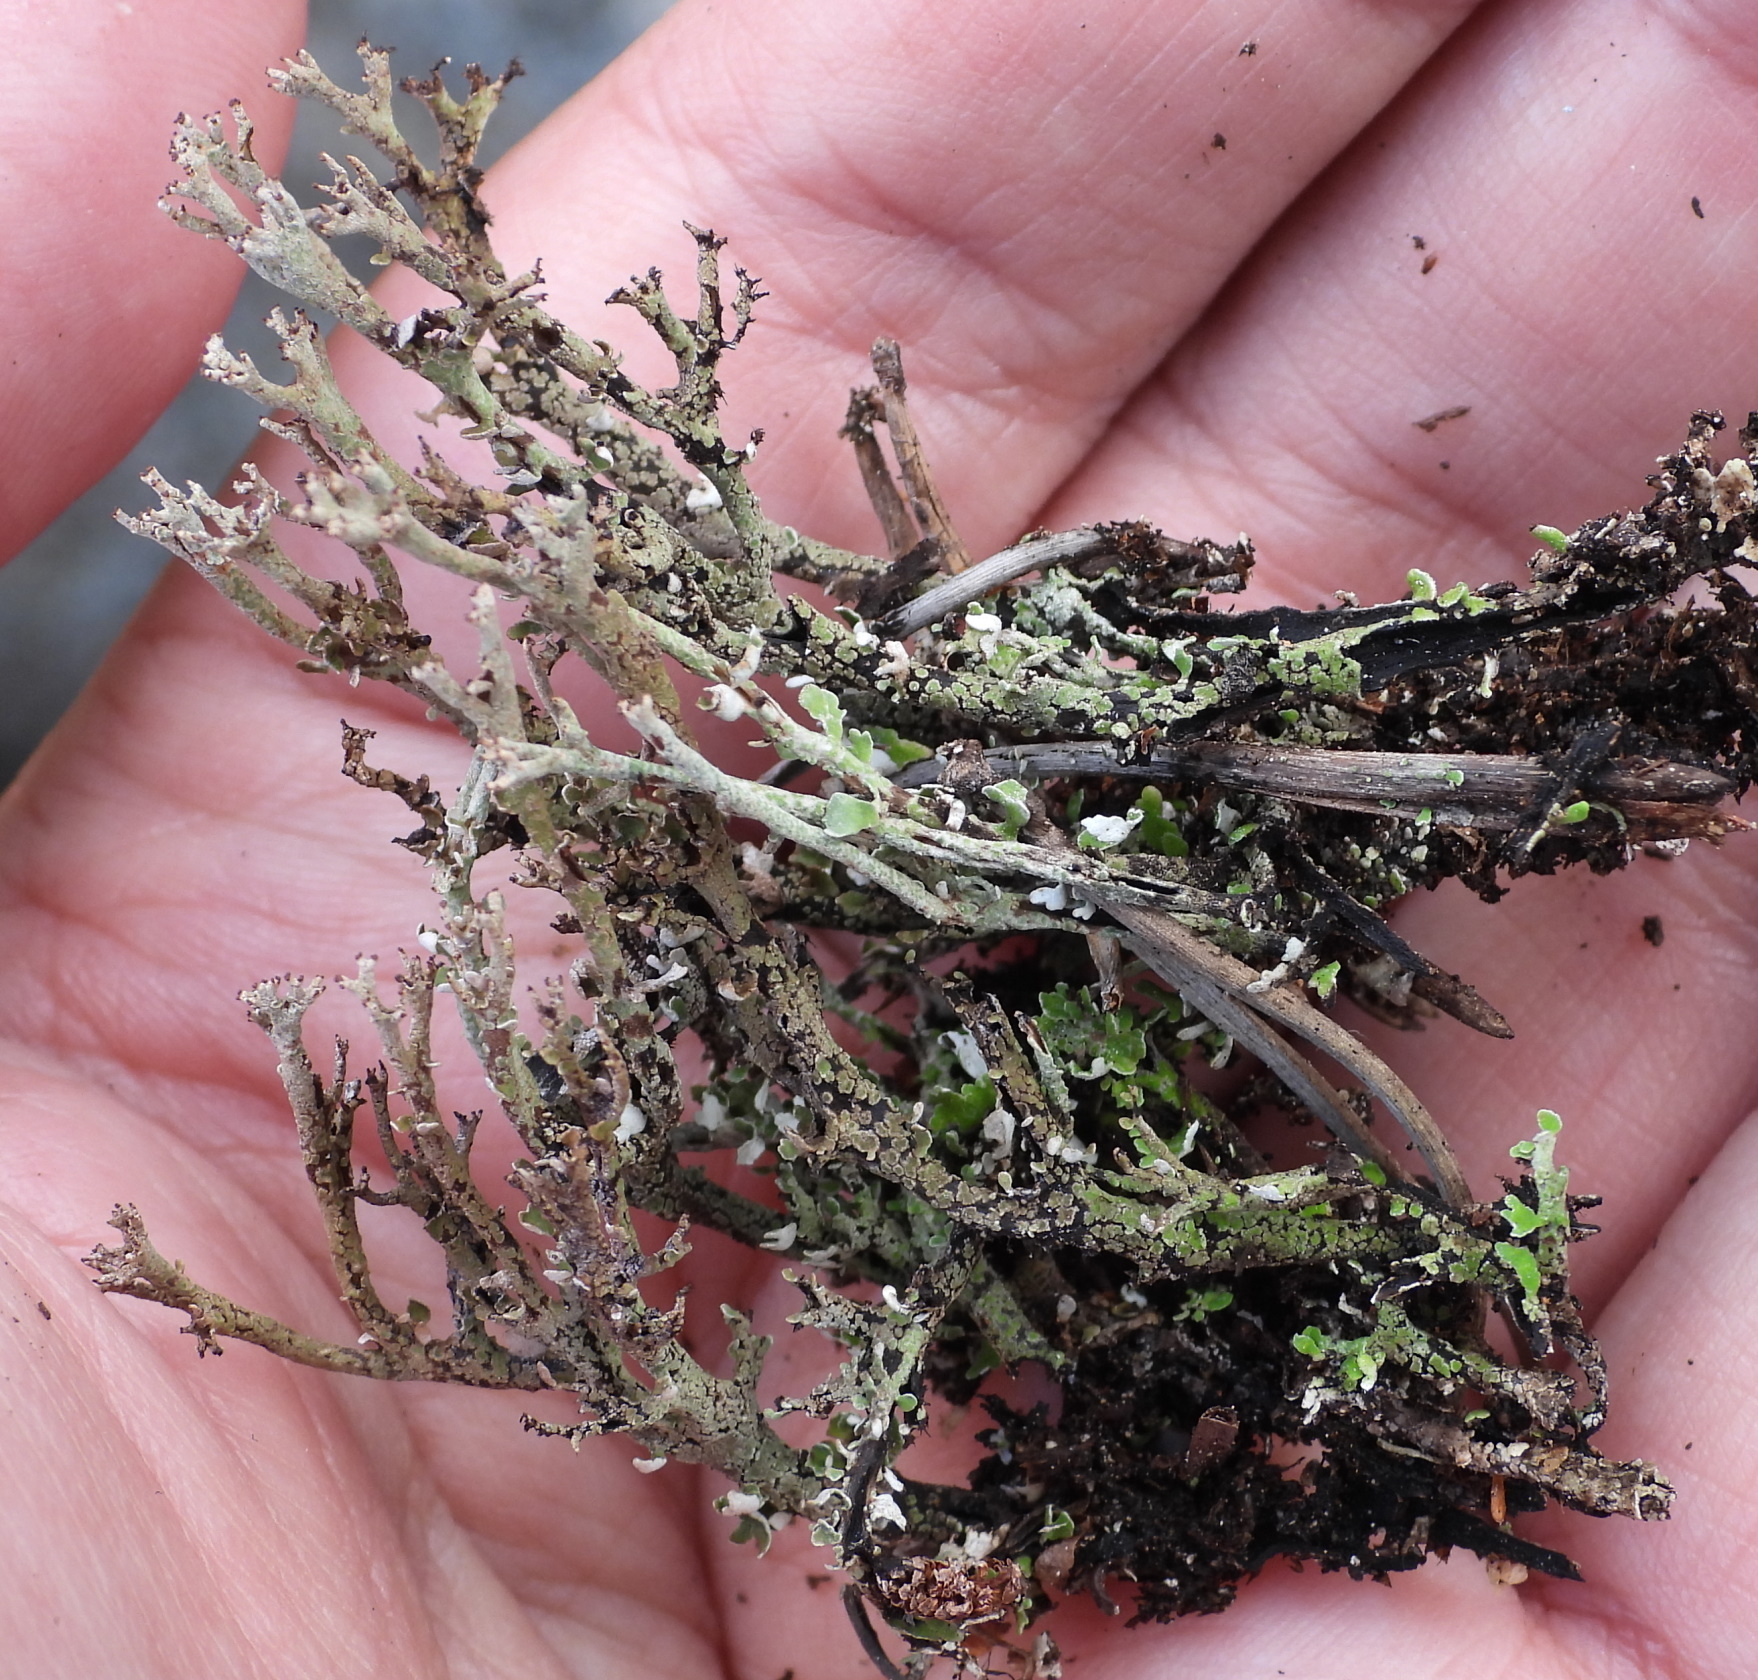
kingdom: Fungi
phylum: Ascomycota
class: Lecanoromycetes
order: Lecanorales
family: Cladoniaceae
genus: Cladonia
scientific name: Cladonia phyllophora
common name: Felt clad lichen
